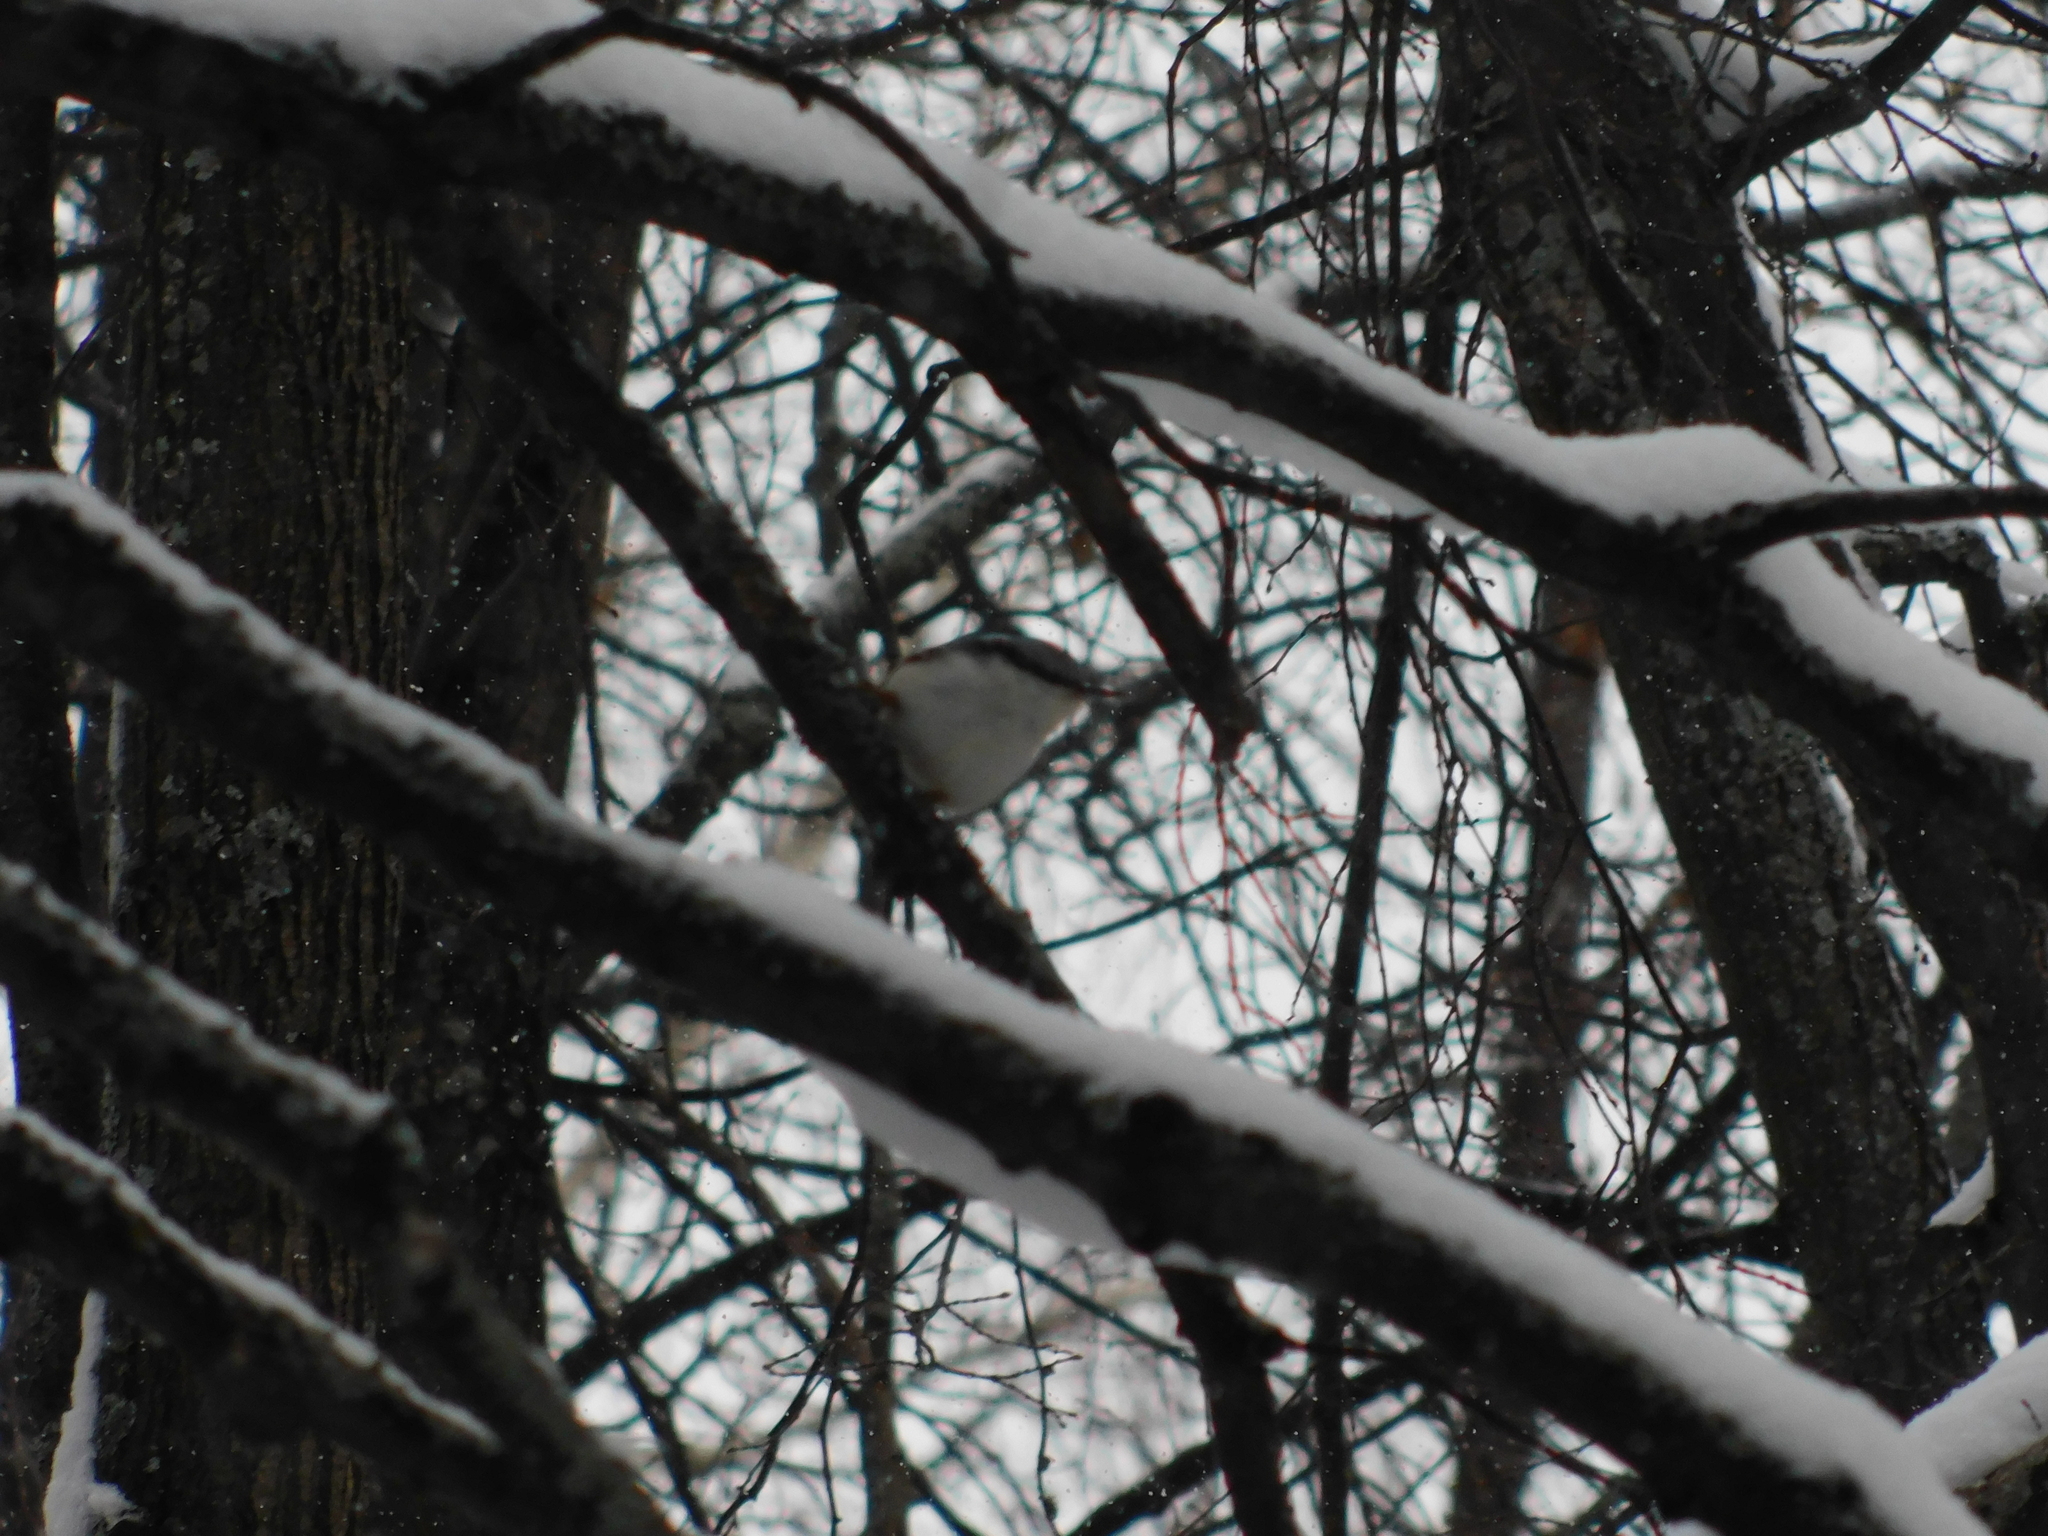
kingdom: Animalia
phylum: Chordata
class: Aves
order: Passeriformes
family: Sittidae
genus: Sitta
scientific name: Sitta europaea
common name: Eurasian nuthatch
